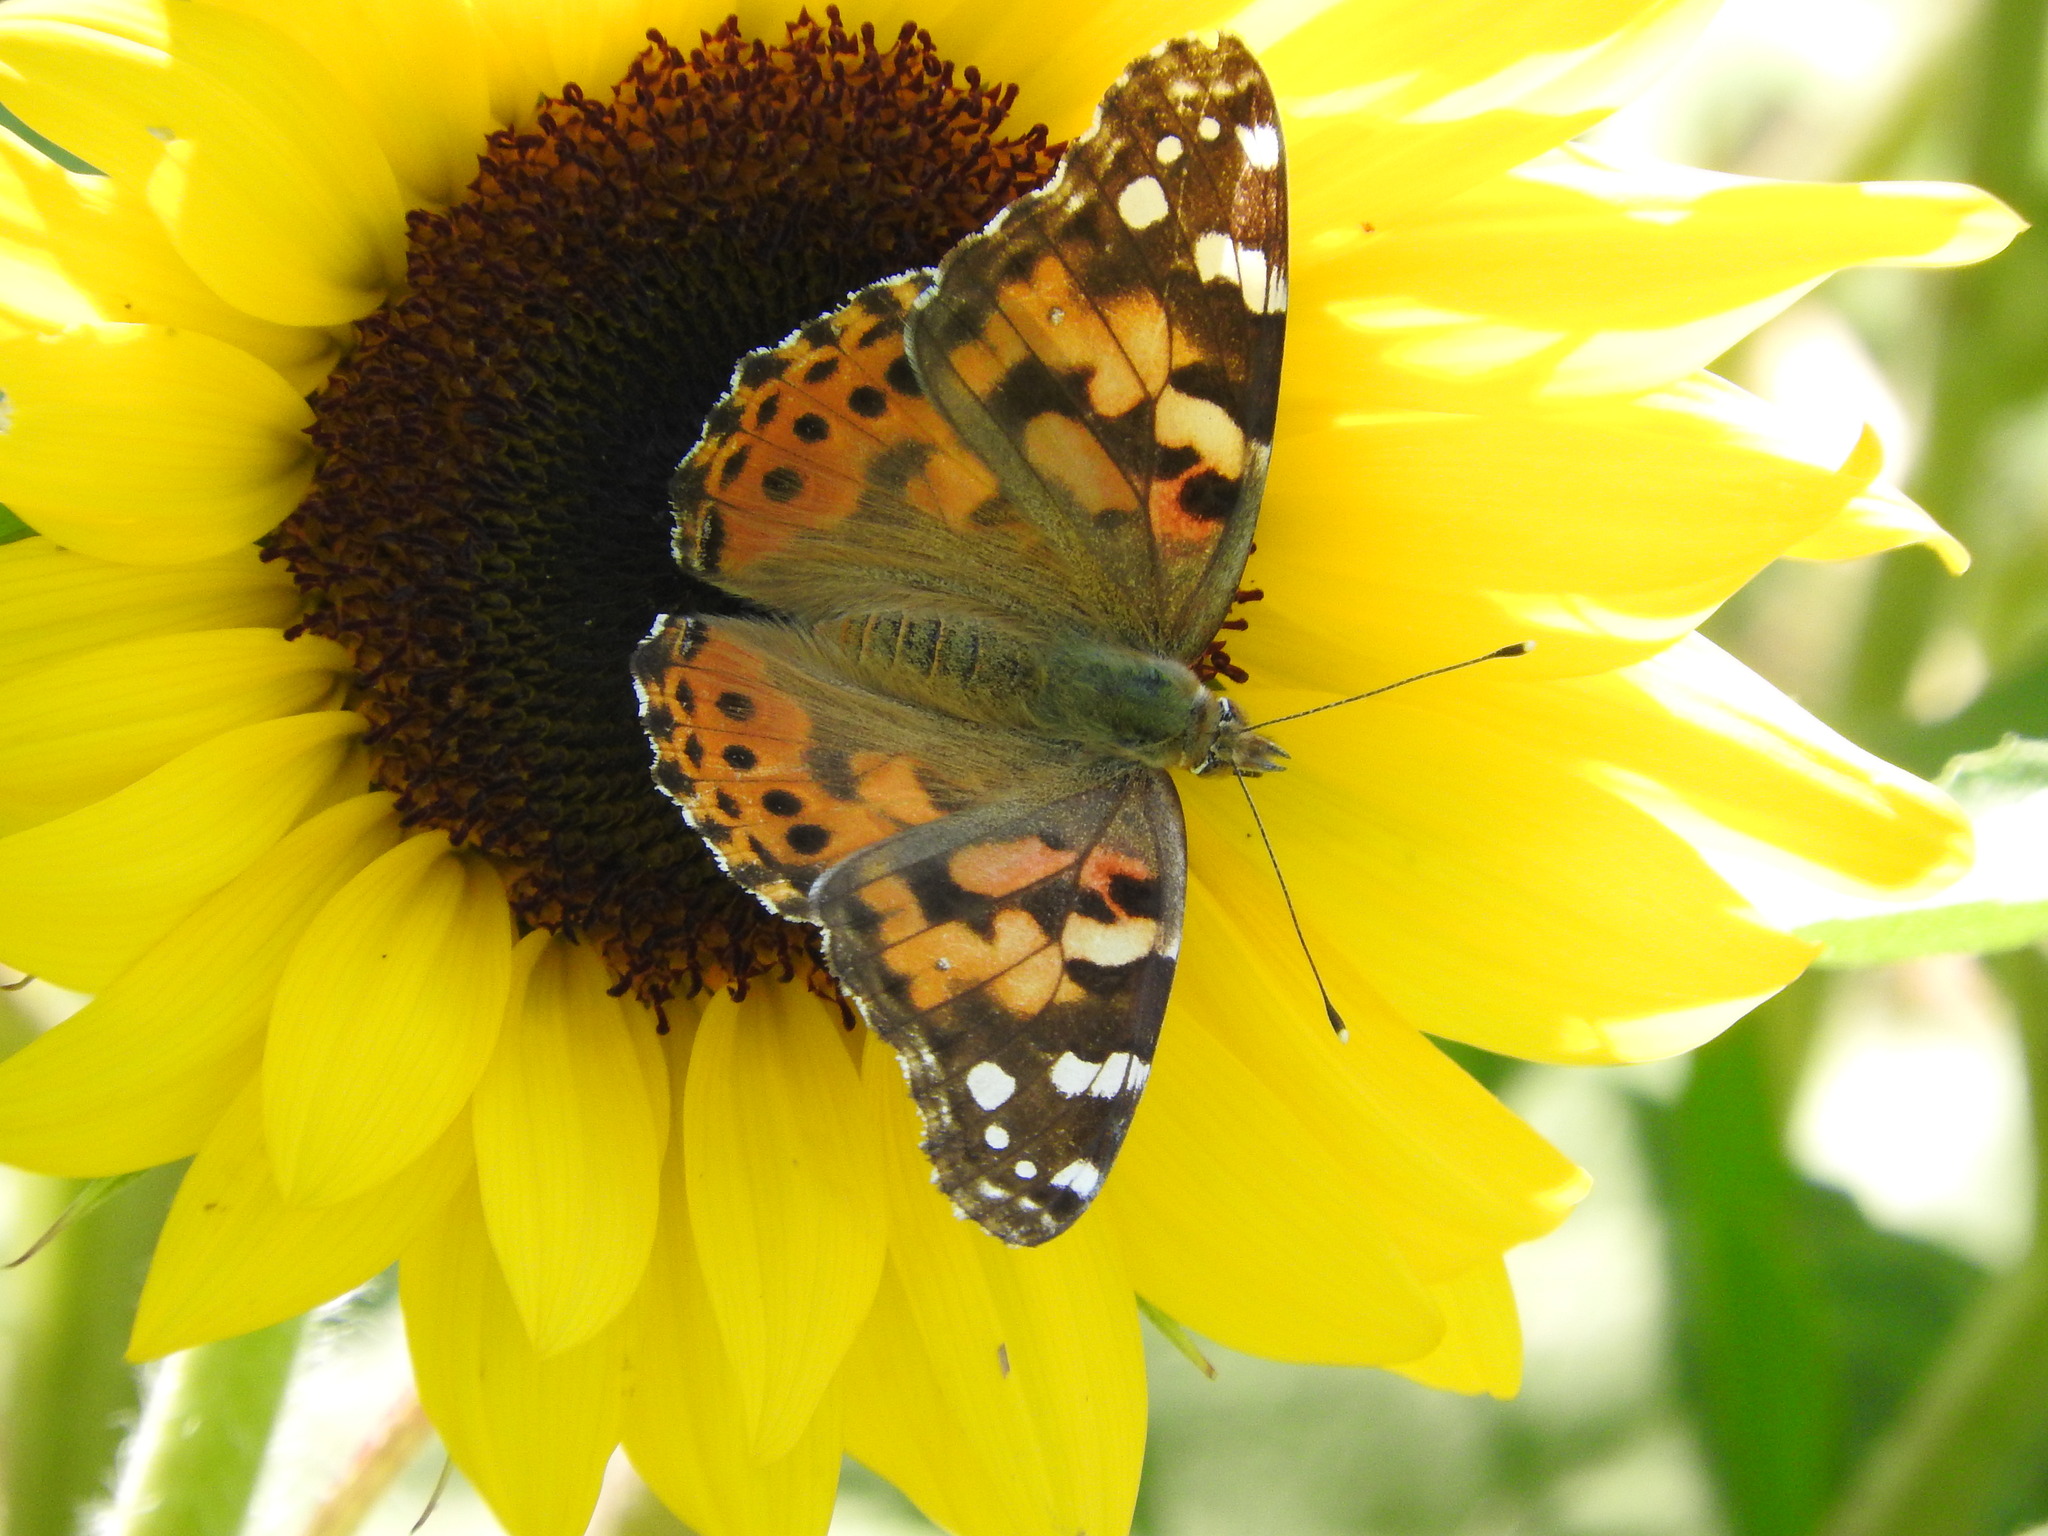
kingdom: Animalia
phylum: Arthropoda
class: Insecta
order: Lepidoptera
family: Nymphalidae
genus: Vanessa
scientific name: Vanessa cardui
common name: Painted lady
